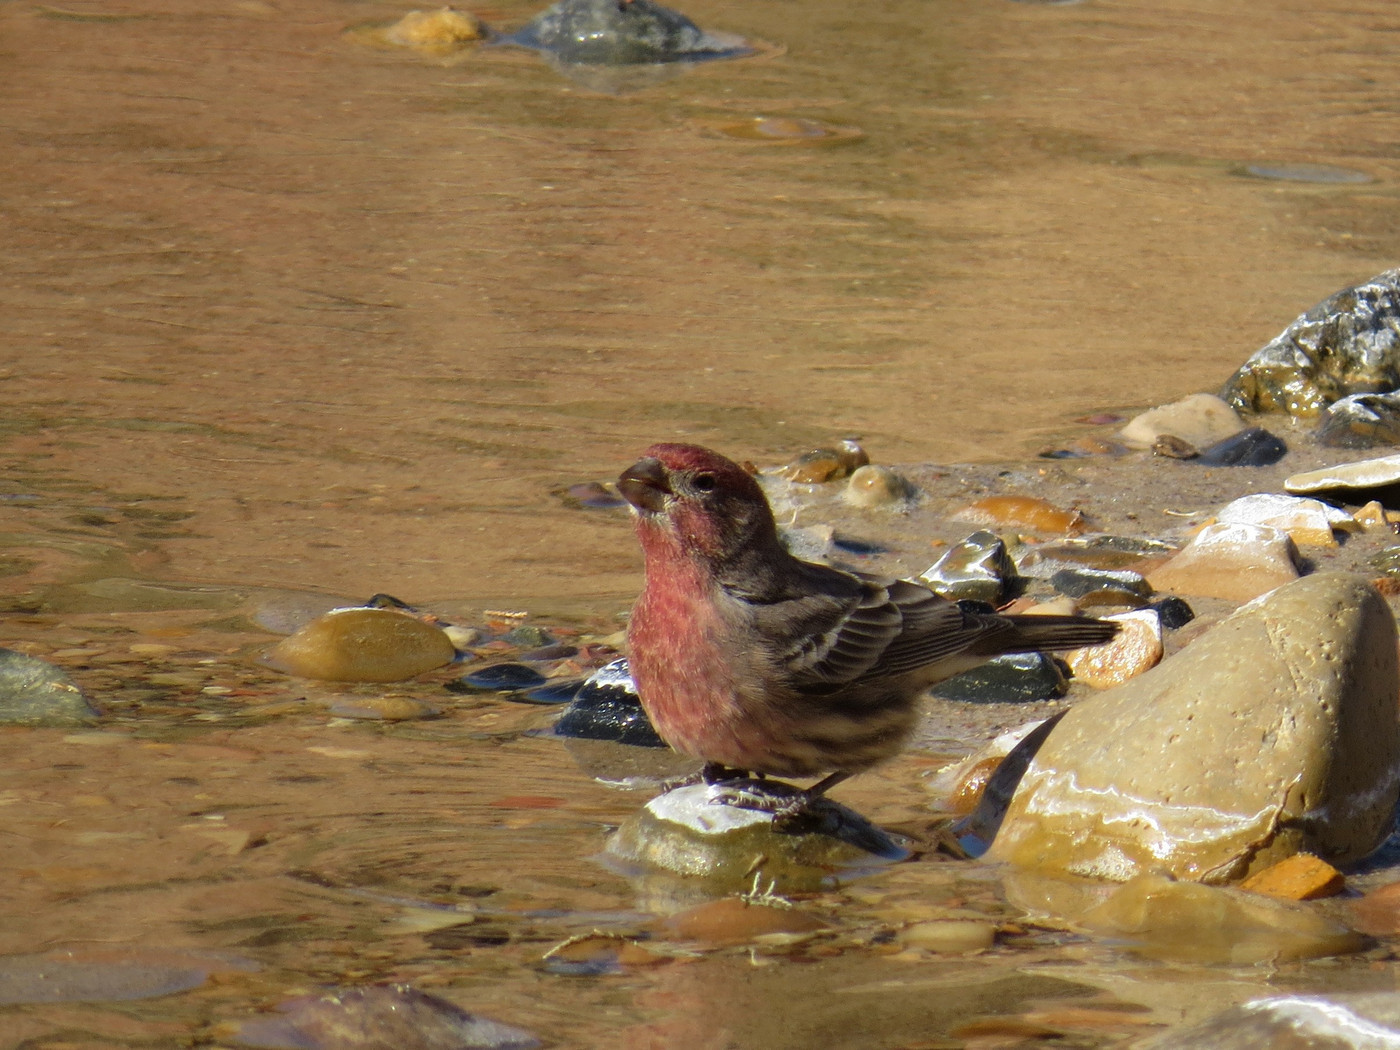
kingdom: Animalia
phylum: Chordata
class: Aves
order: Passeriformes
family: Fringillidae
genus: Haemorhous
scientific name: Haemorhous mexicanus
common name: House finch
